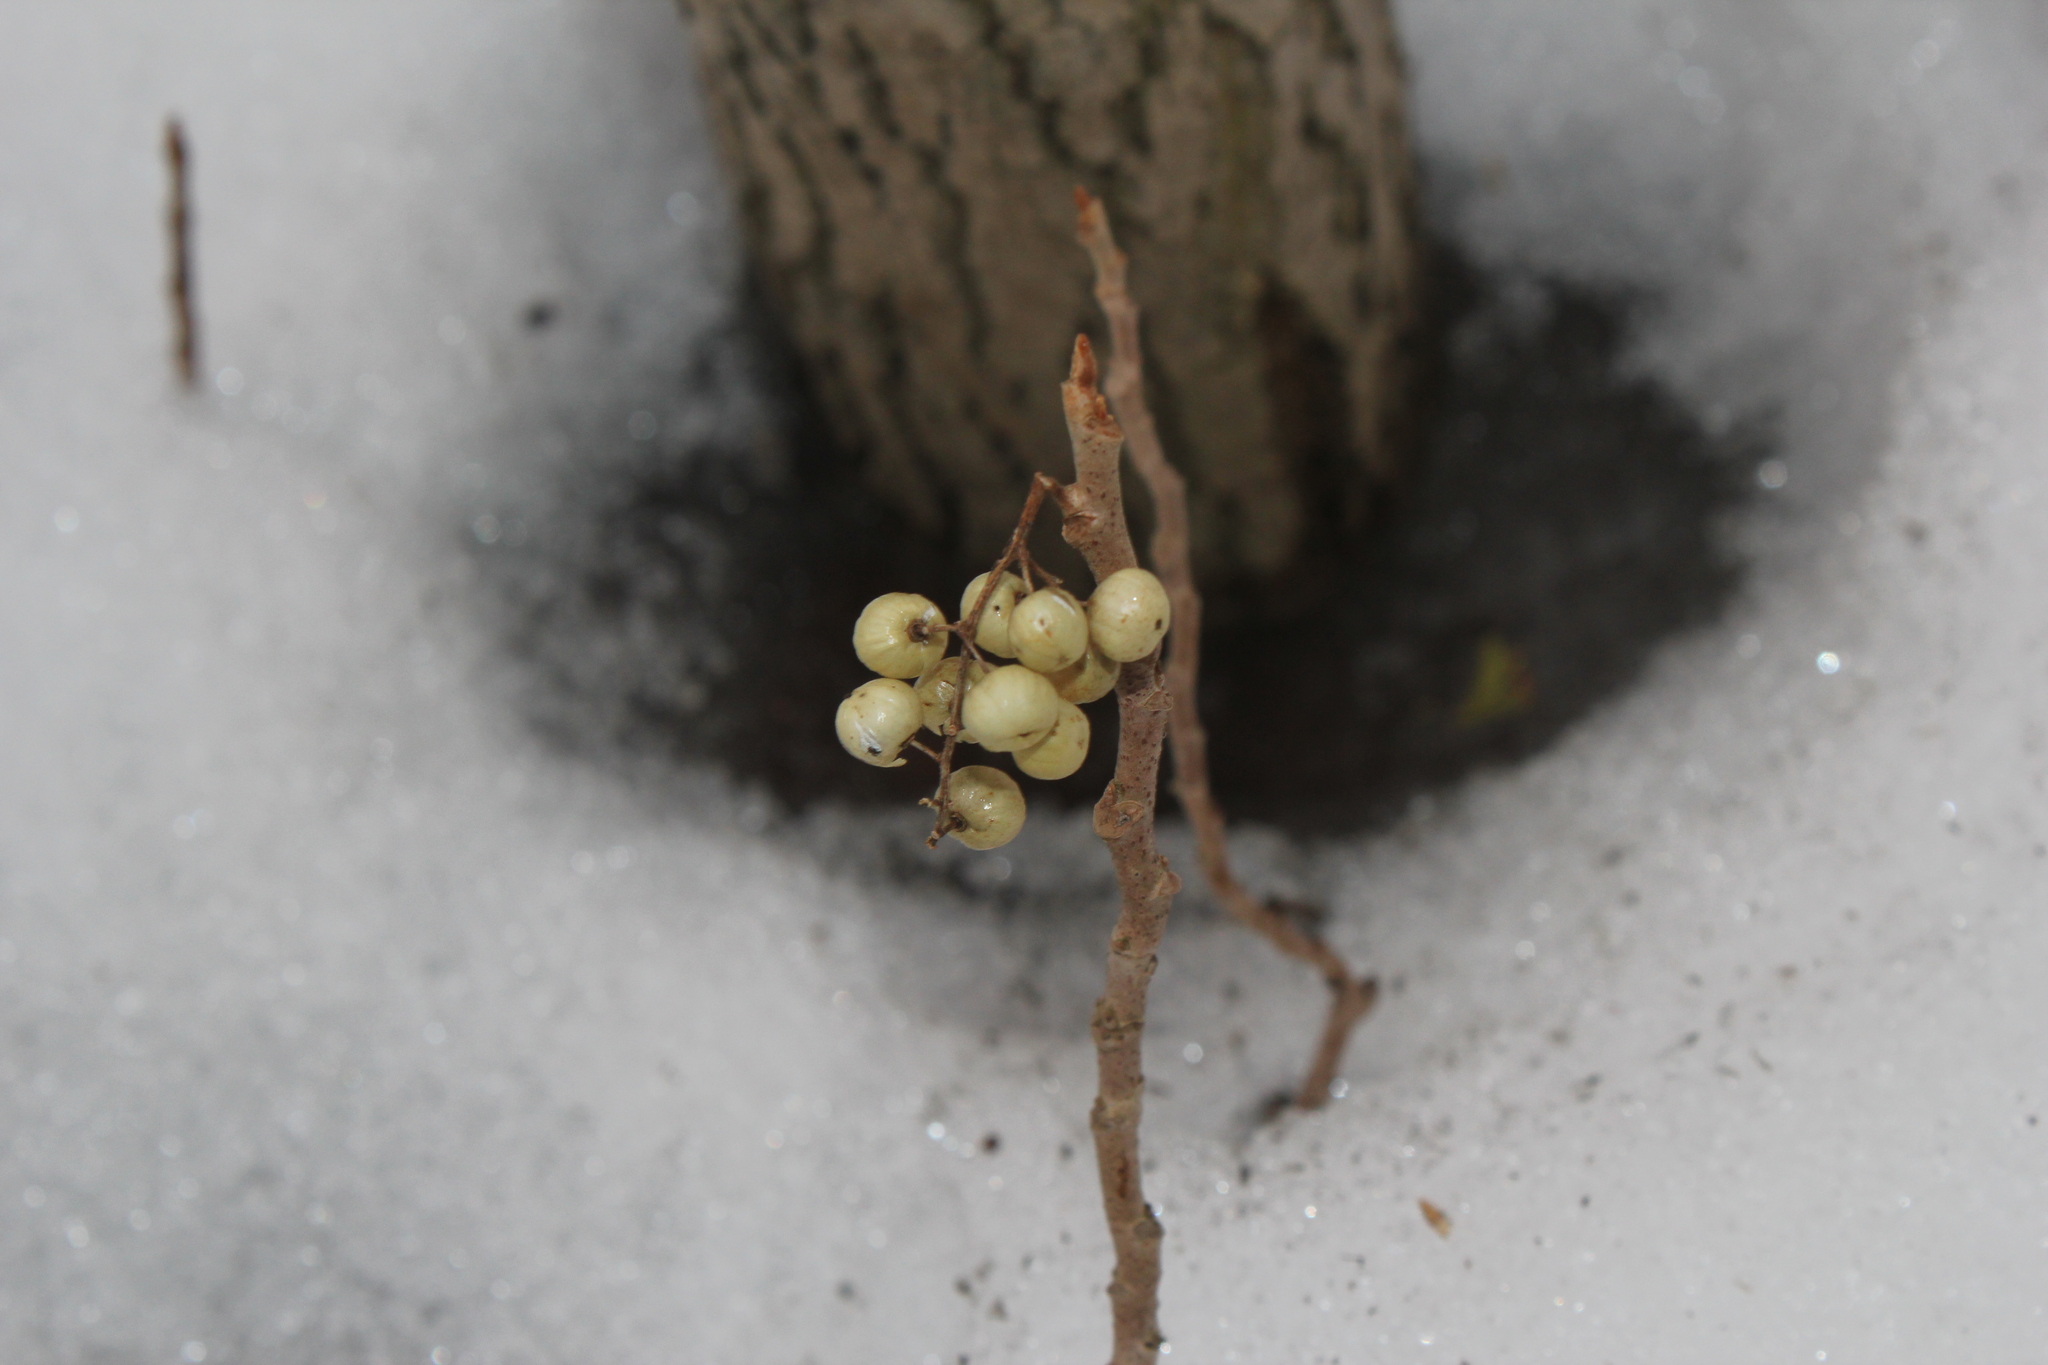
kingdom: Plantae
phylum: Tracheophyta
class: Magnoliopsida
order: Sapindales
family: Anacardiaceae
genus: Toxicodendron
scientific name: Toxicodendron rydbergii
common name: Rydberg's poison-ivy
